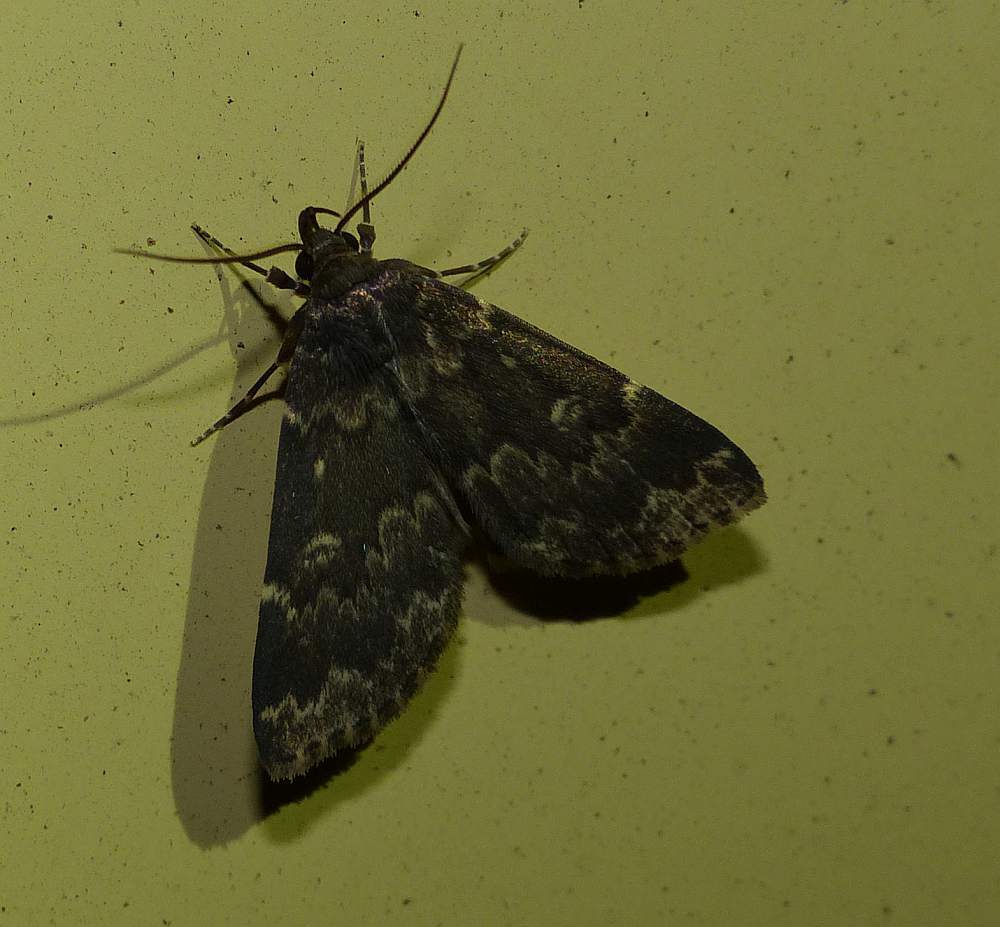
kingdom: Animalia
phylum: Arthropoda
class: Insecta
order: Lepidoptera
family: Erebidae
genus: Idia
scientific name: Idia lubricalis
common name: Twin-striped tabby
